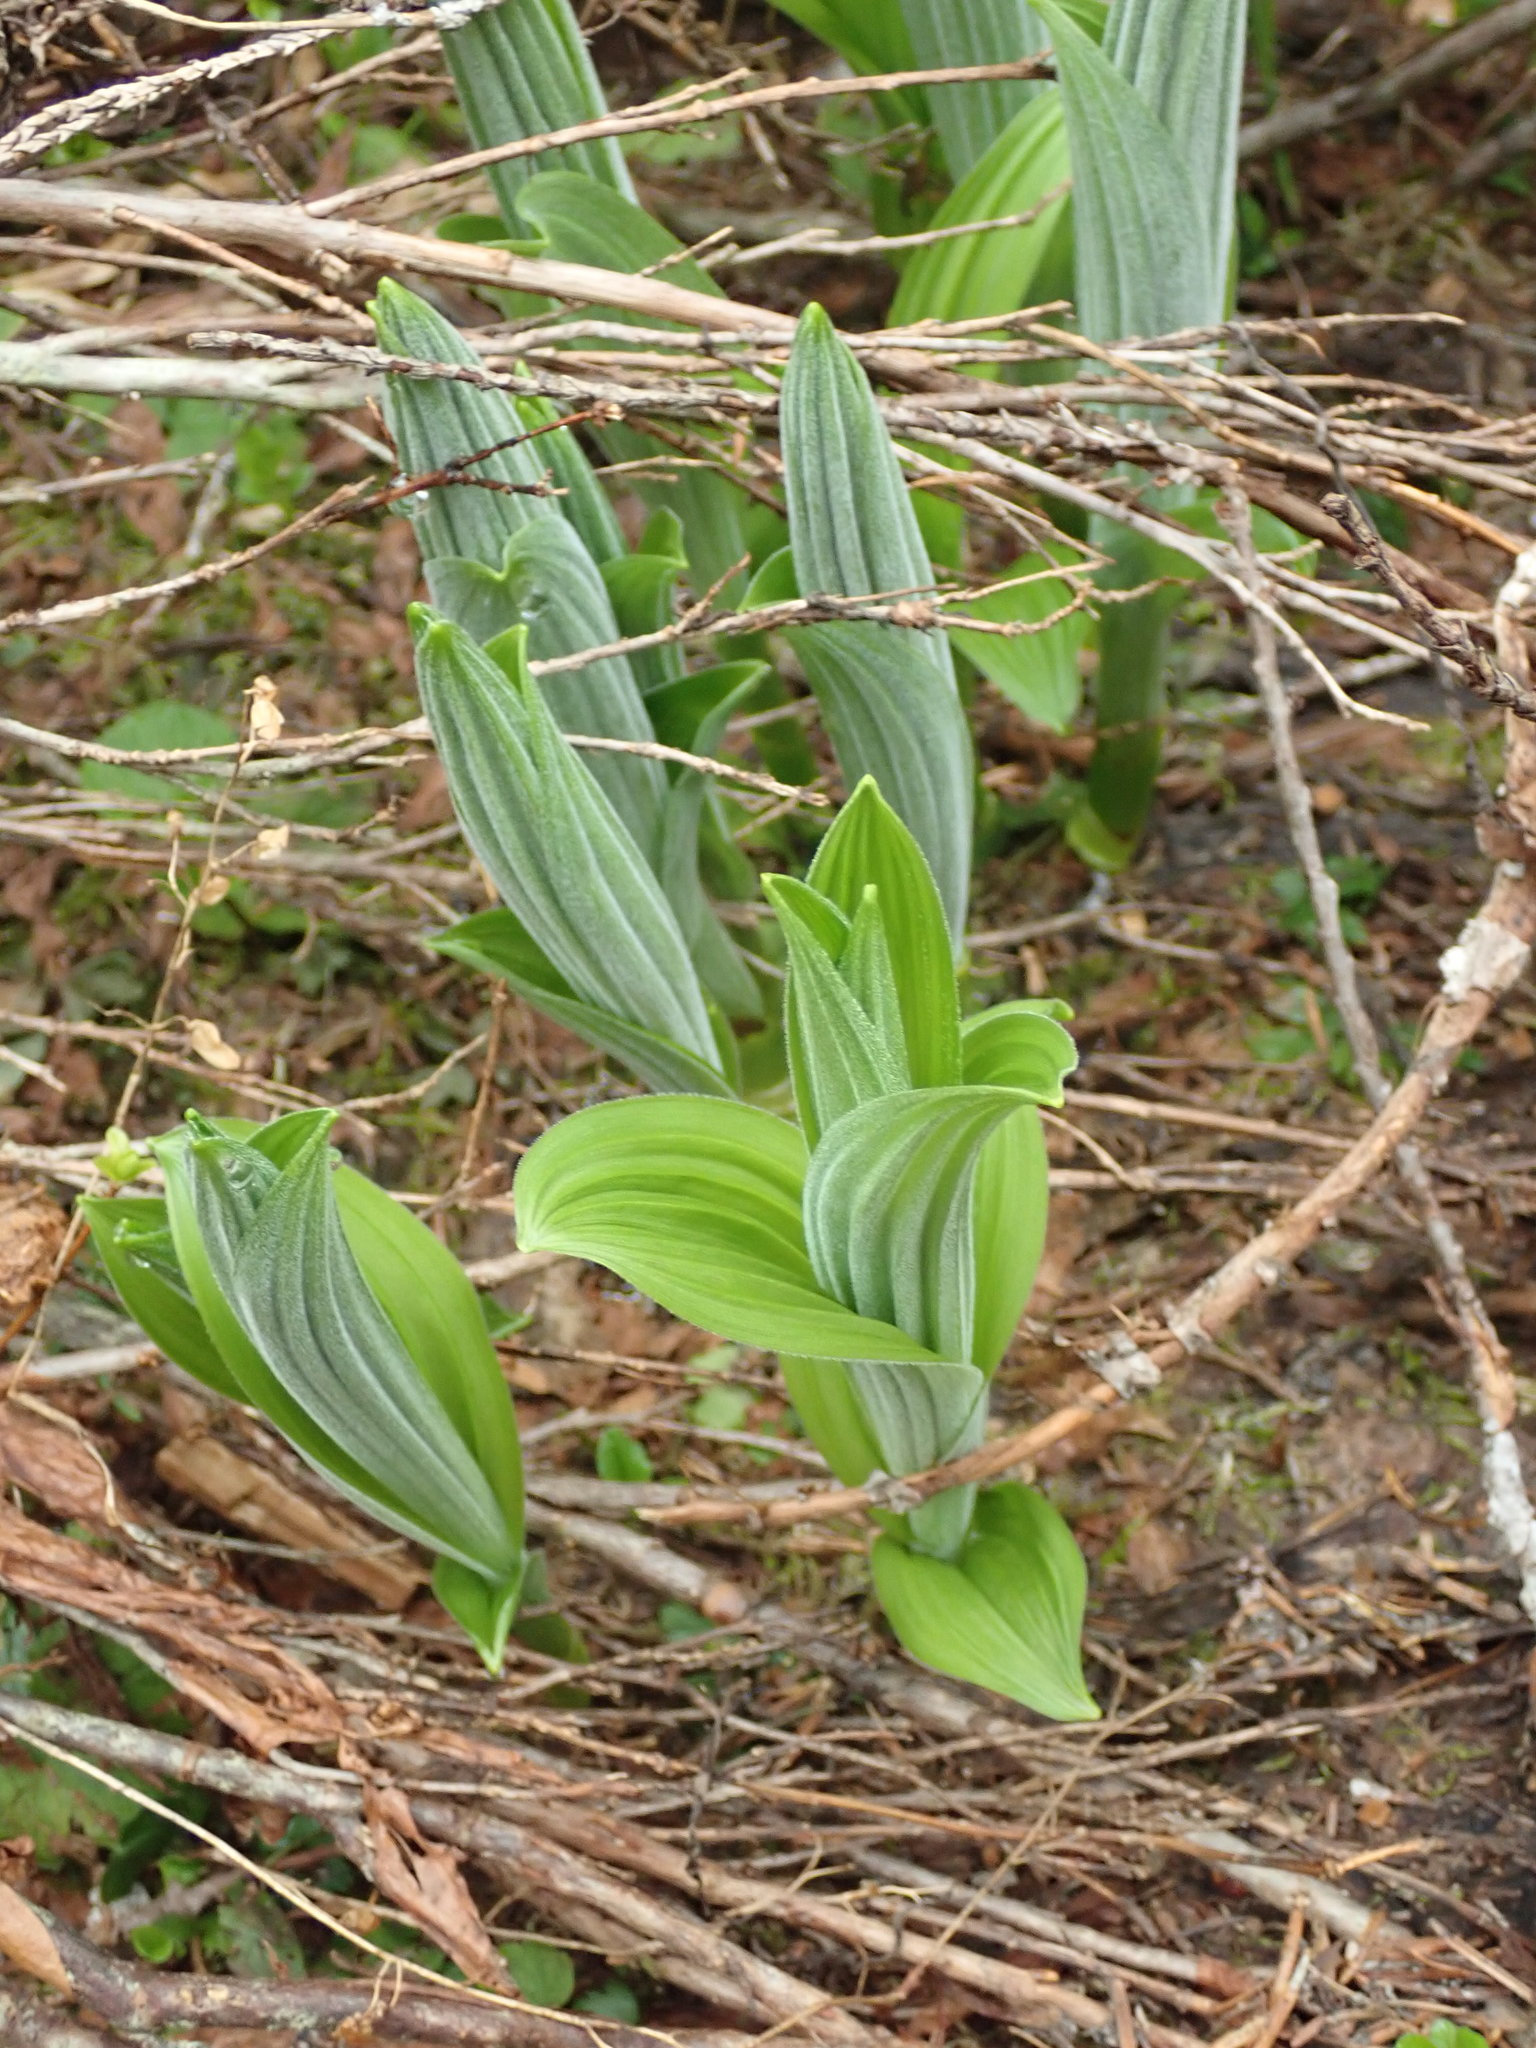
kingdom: Plantae
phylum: Tracheophyta
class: Liliopsida
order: Liliales
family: Melanthiaceae
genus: Veratrum
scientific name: Veratrum viride
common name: American false hellebore
